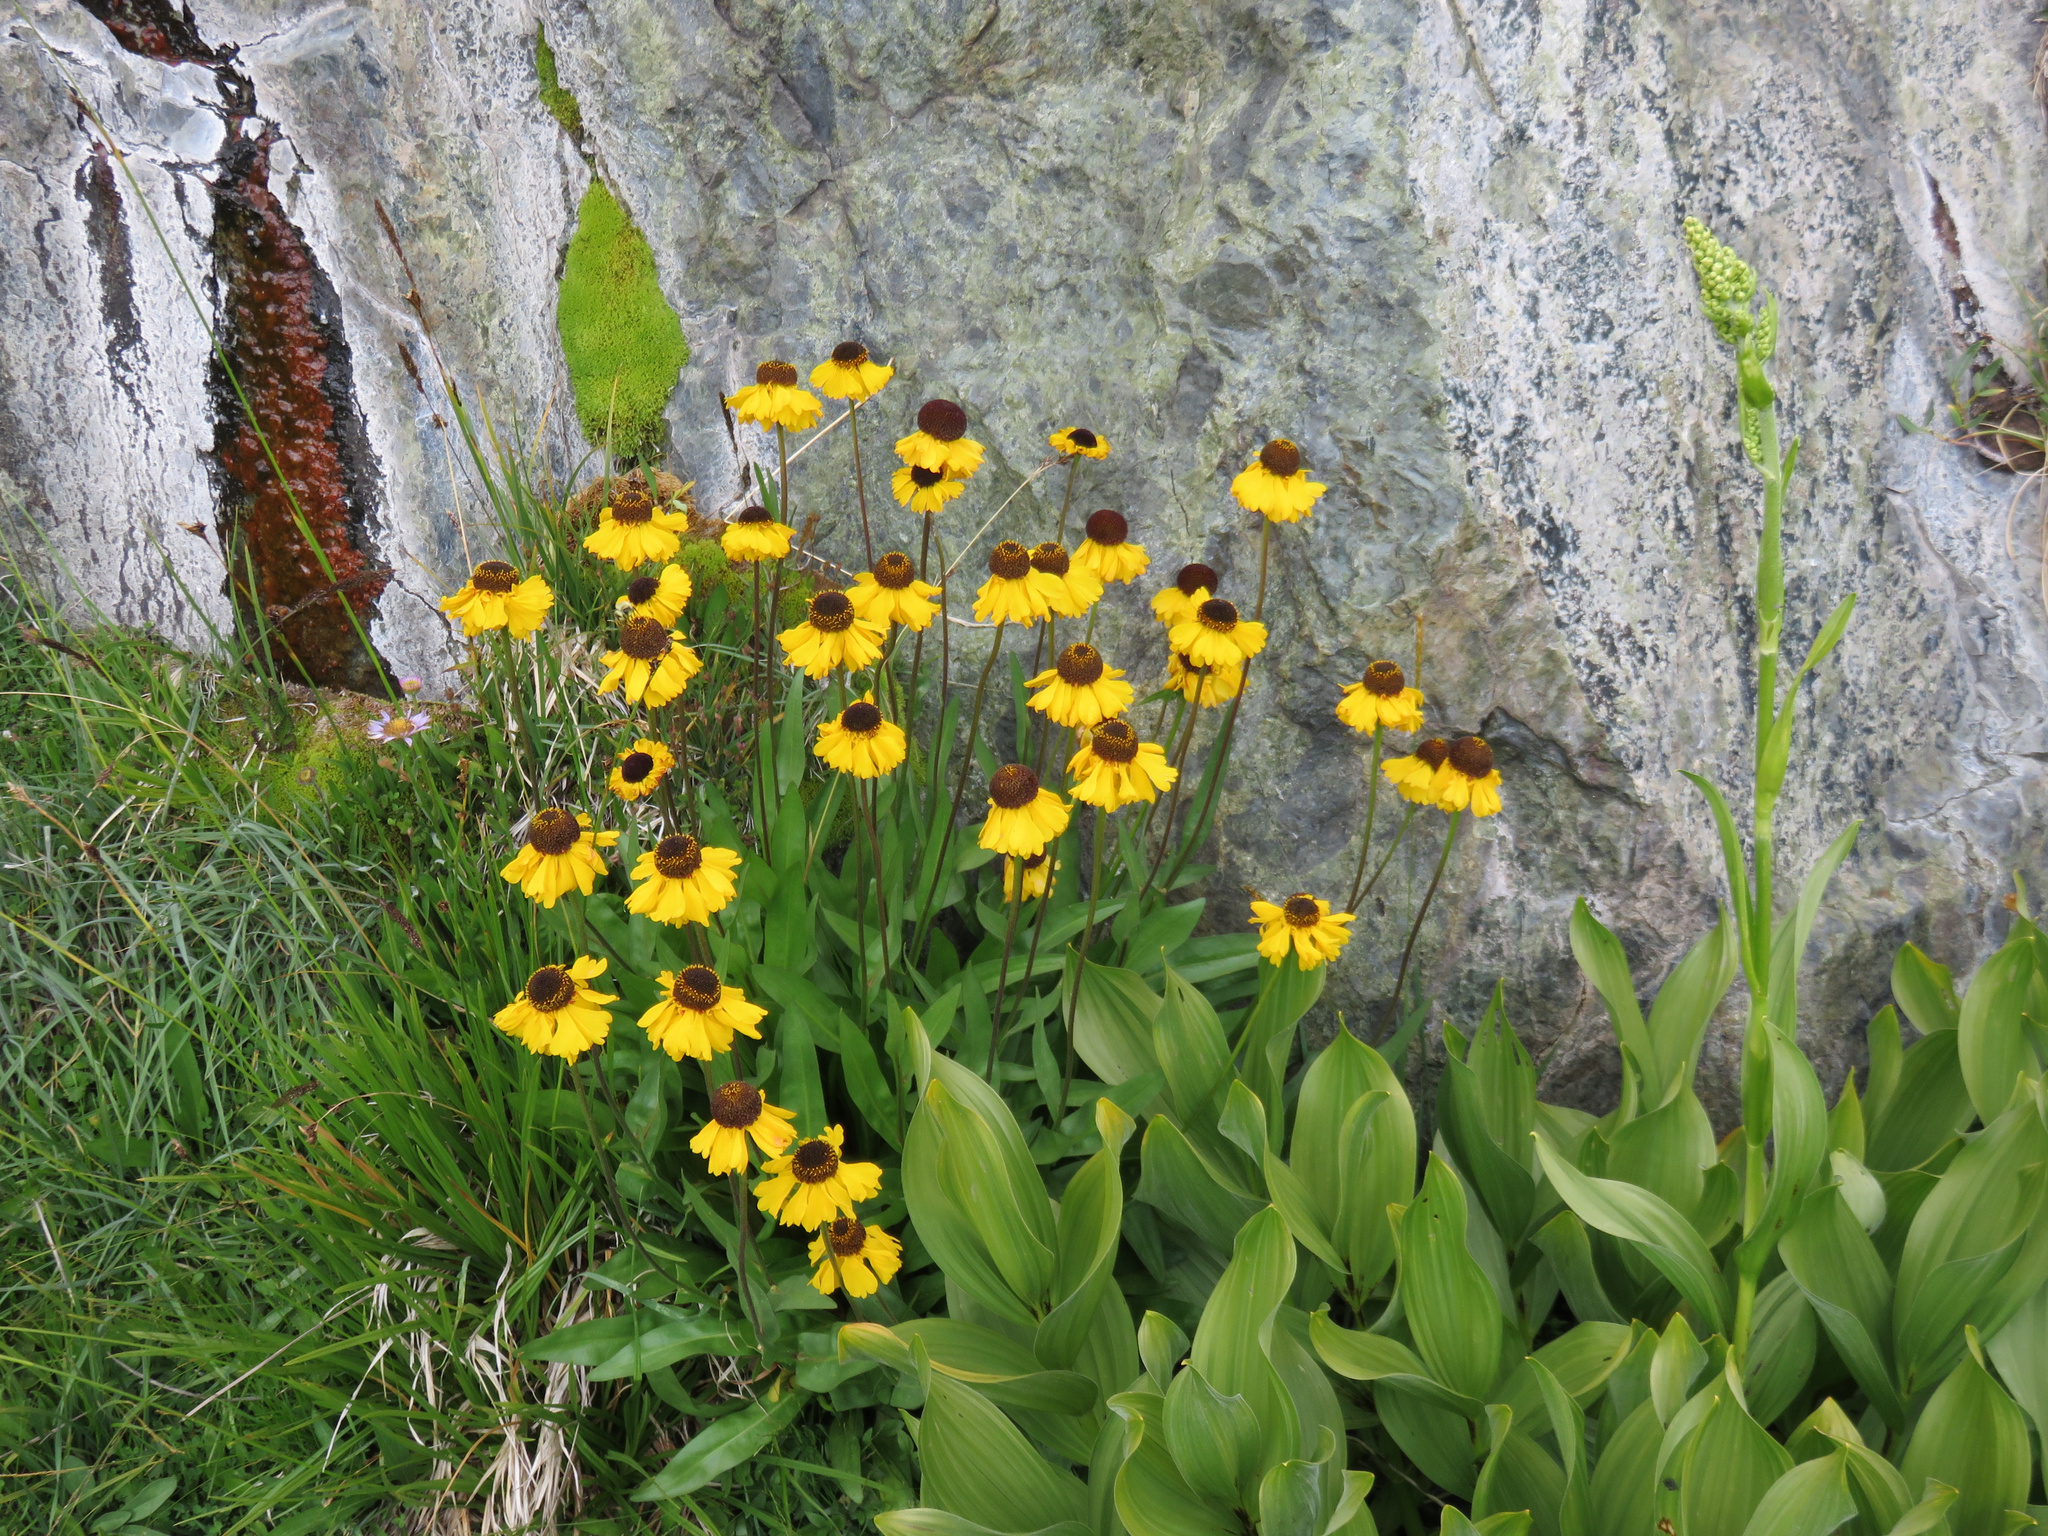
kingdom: Plantae
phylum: Tracheophyta
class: Magnoliopsida
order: Asterales
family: Asteraceae
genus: Helenium
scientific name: Helenium bigelovii
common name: Bigelow's sneezeweed
